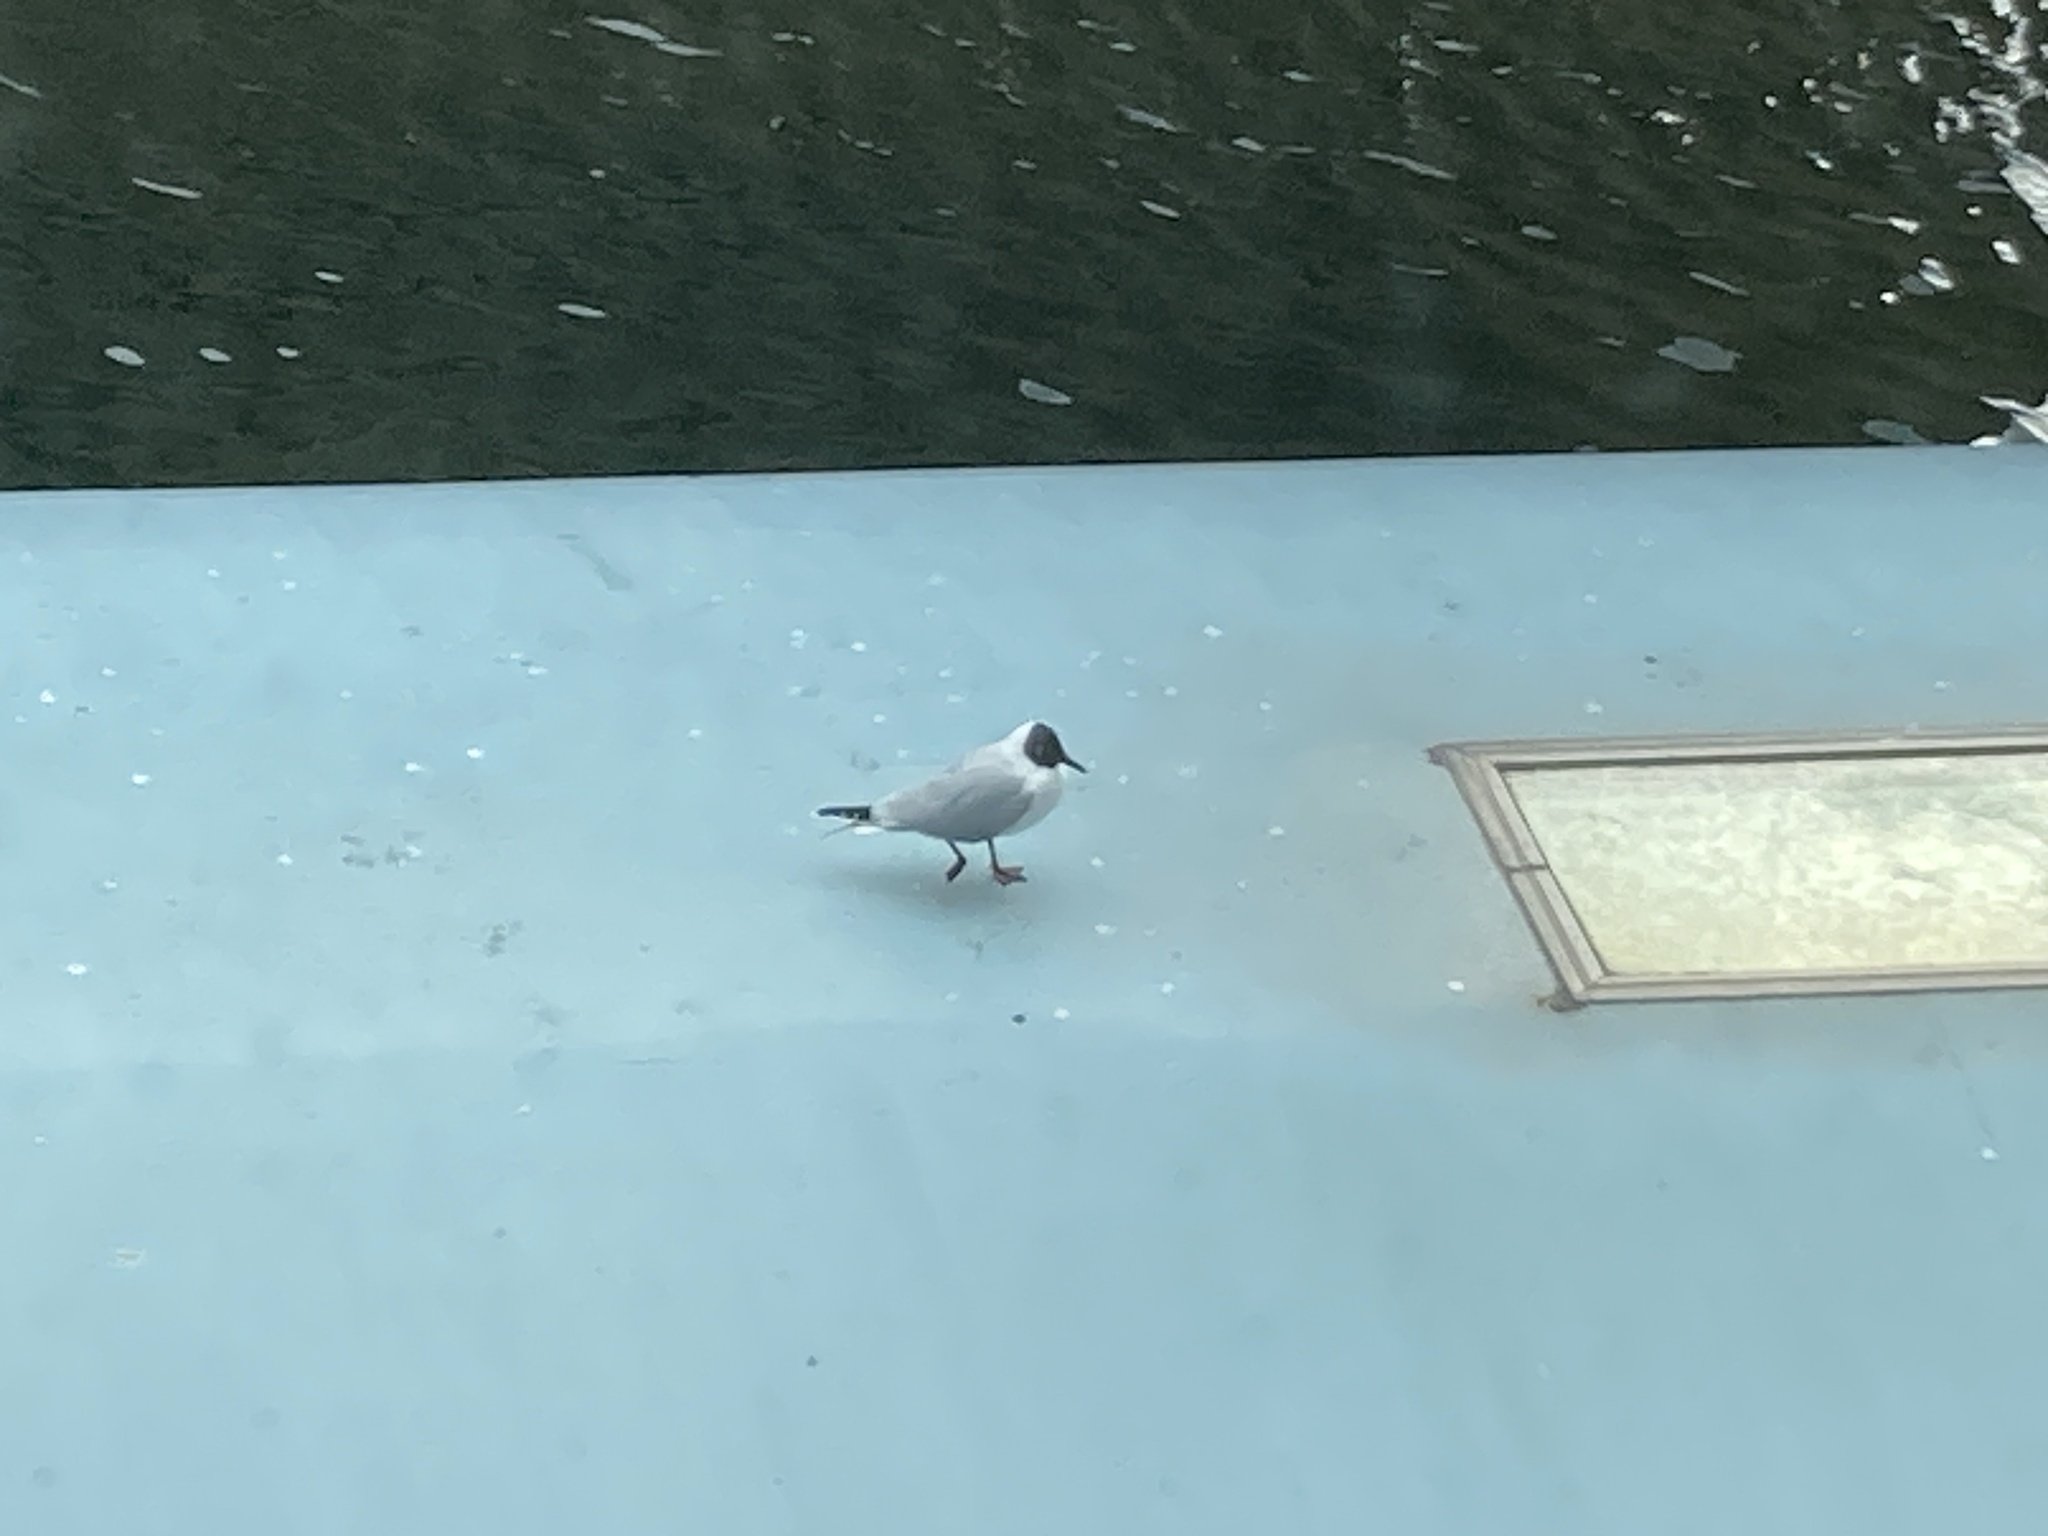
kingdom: Animalia
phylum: Chordata
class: Aves
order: Charadriiformes
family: Laridae
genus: Chroicocephalus
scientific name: Chroicocephalus ridibundus
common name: Black-headed gull
